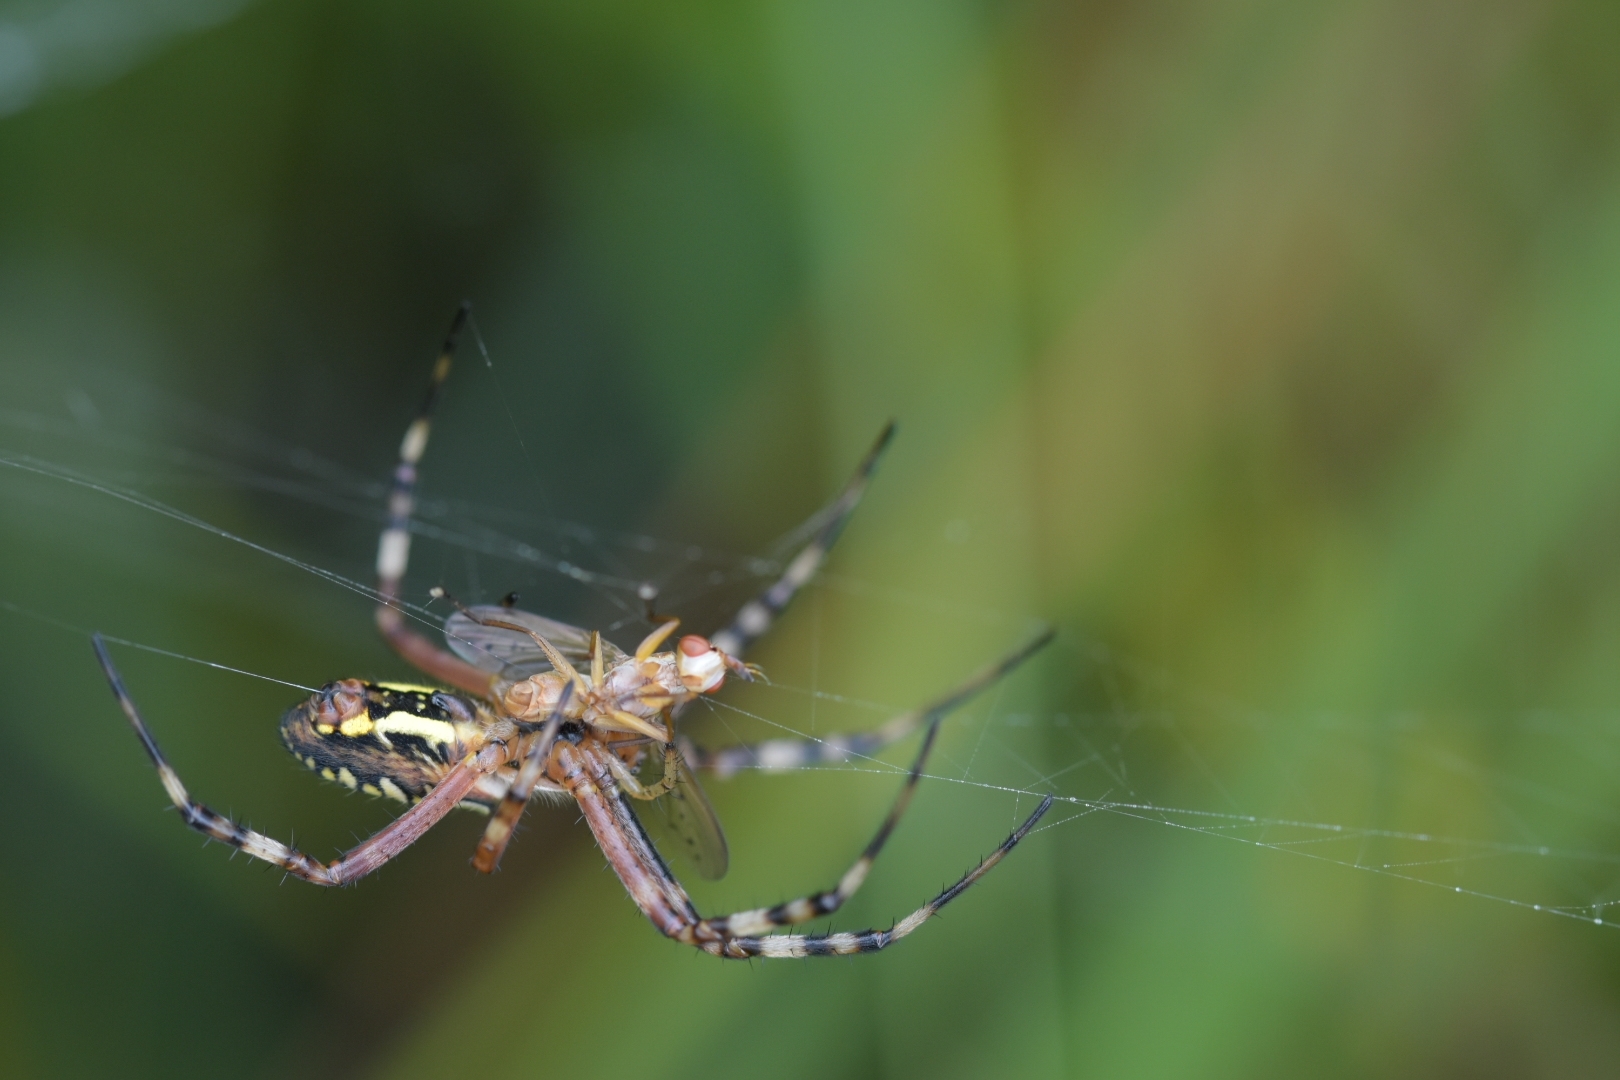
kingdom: Animalia
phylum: Arthropoda
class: Arachnida
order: Araneae
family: Araneidae
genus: Argiope
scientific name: Argiope bruennichi
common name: Wasp spider
